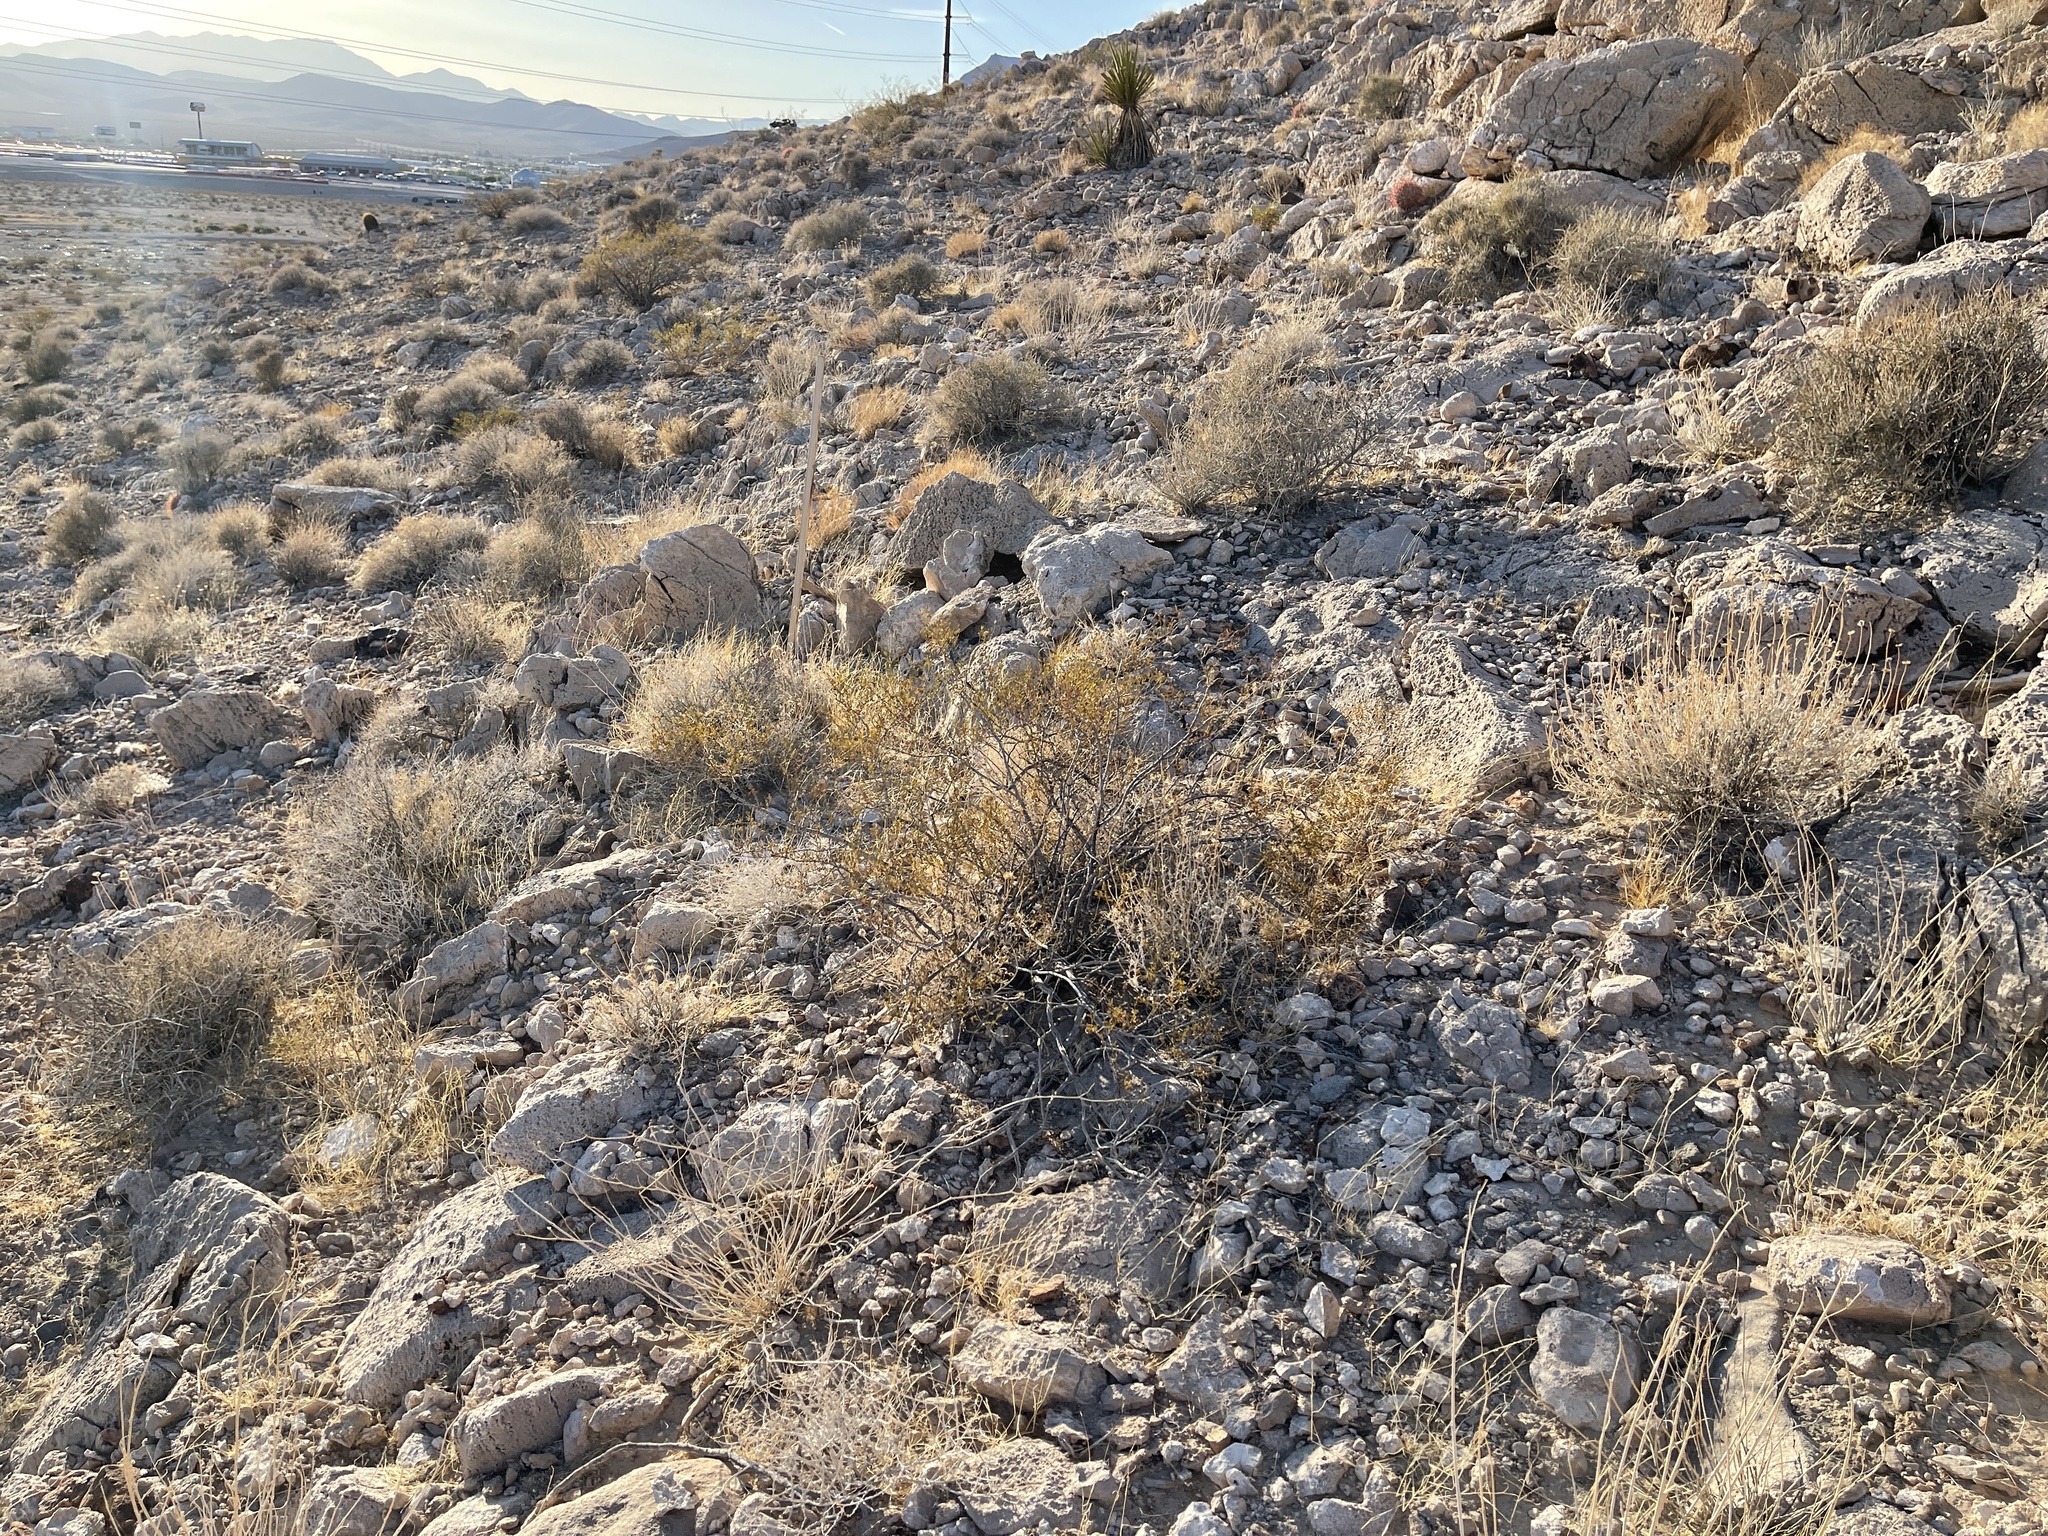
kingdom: Plantae
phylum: Tracheophyta
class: Magnoliopsida
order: Zygophyllales
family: Zygophyllaceae
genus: Larrea
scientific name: Larrea tridentata
